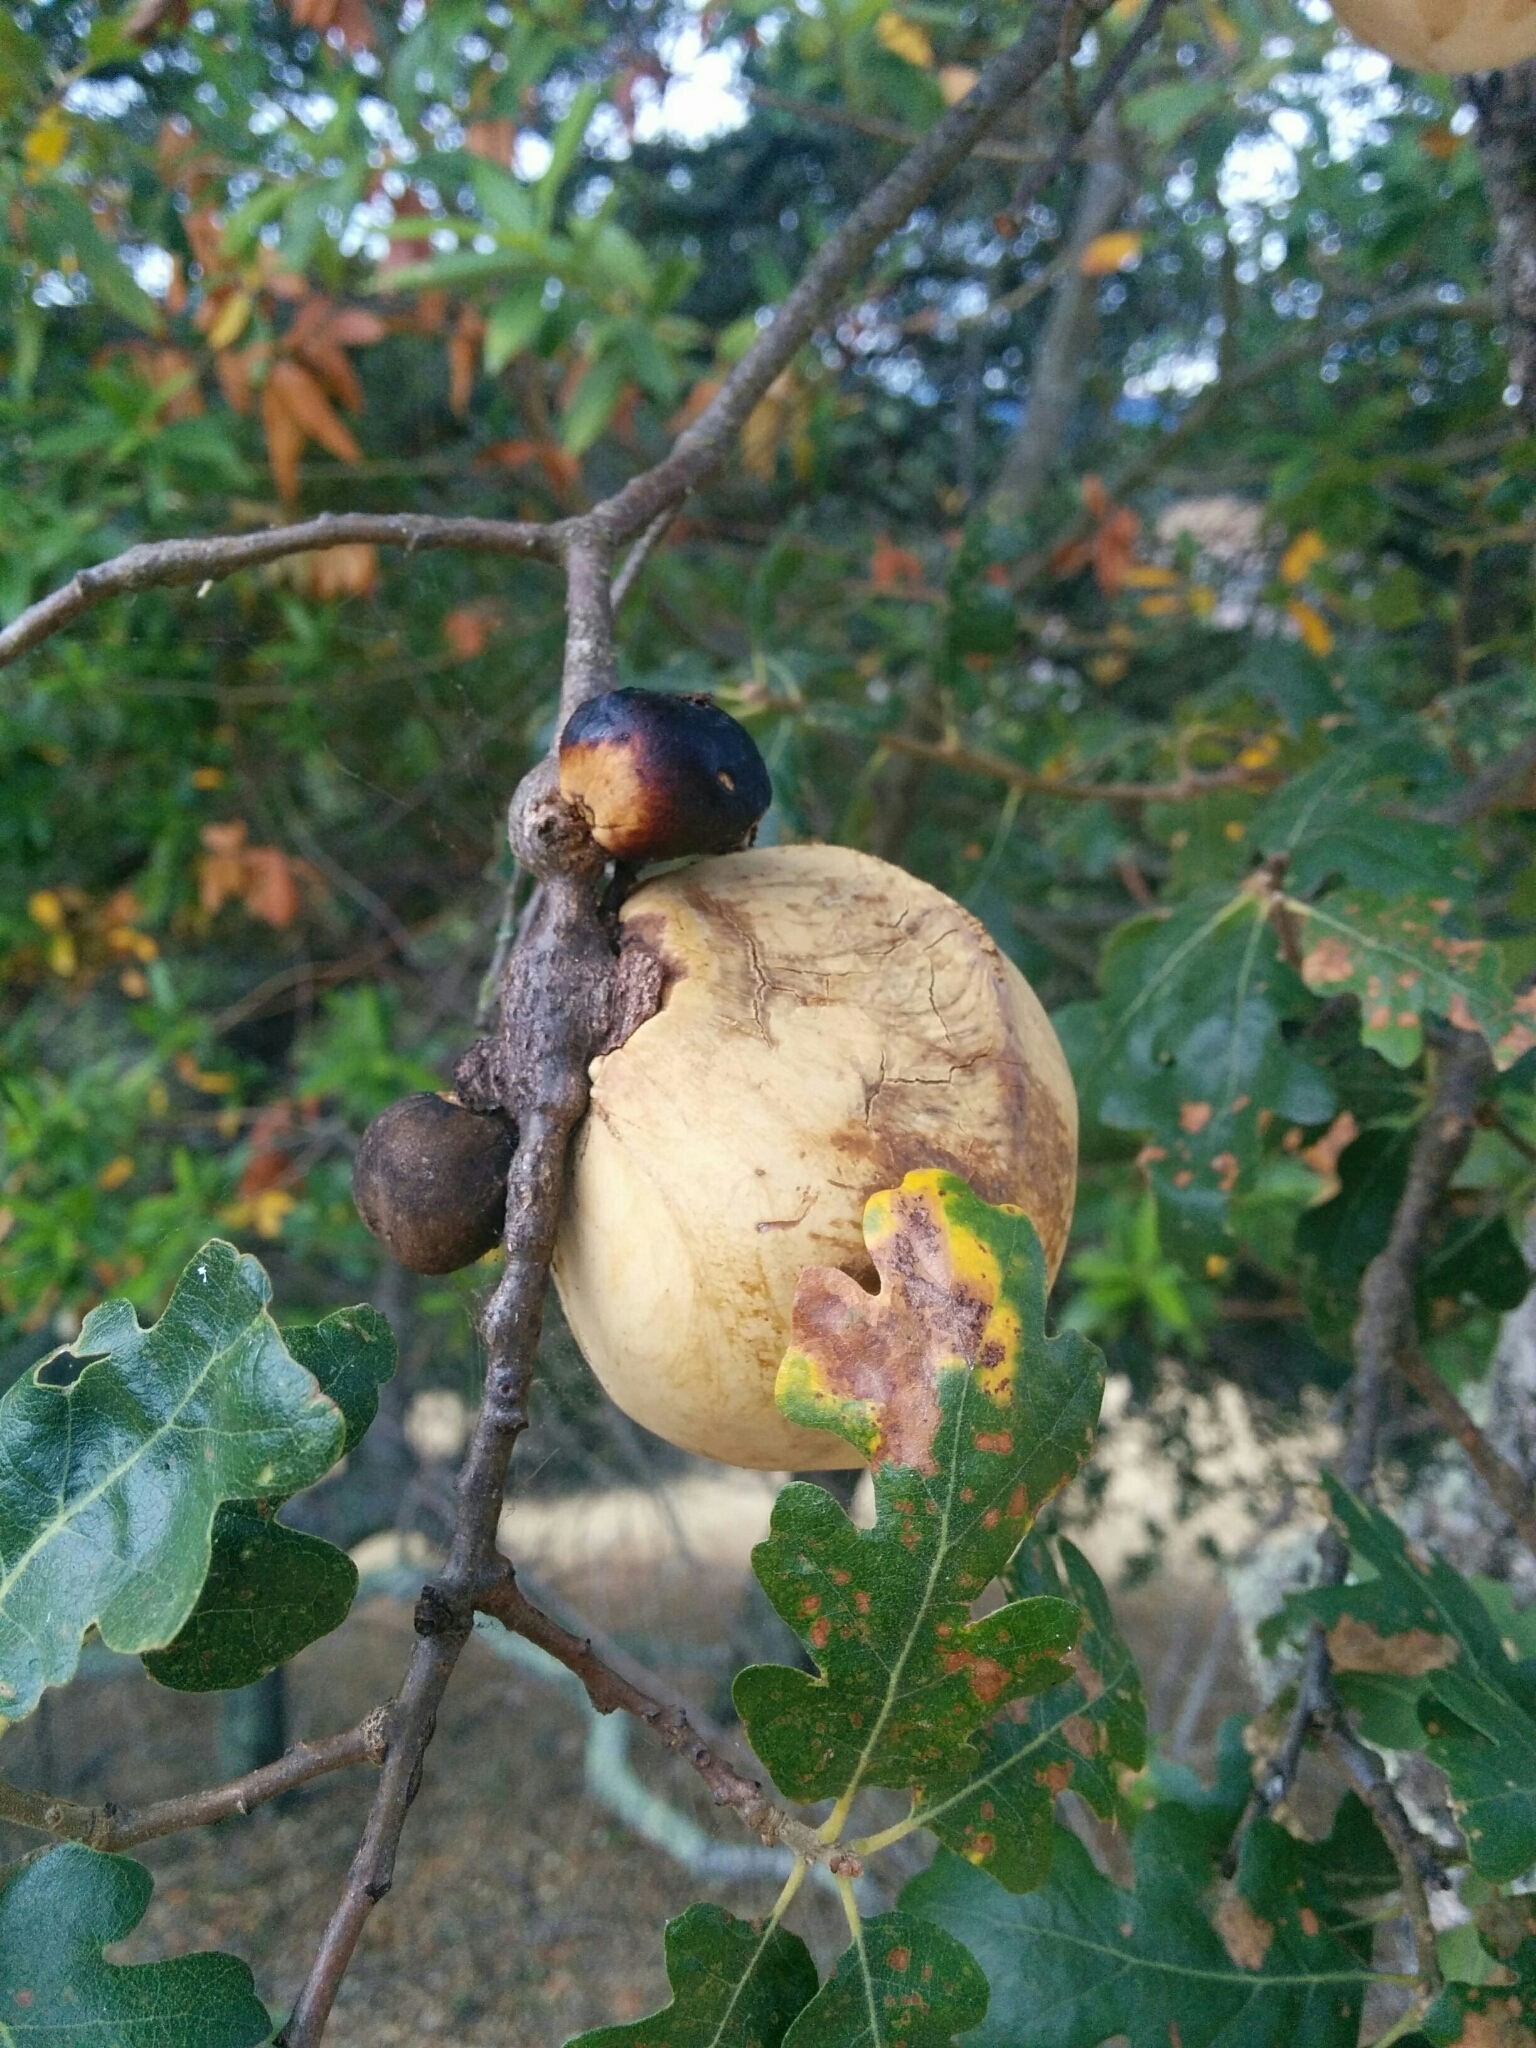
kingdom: Animalia
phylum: Arthropoda
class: Insecta
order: Hymenoptera
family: Cynipidae
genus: Andricus
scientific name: Andricus quercuscalifornicus
